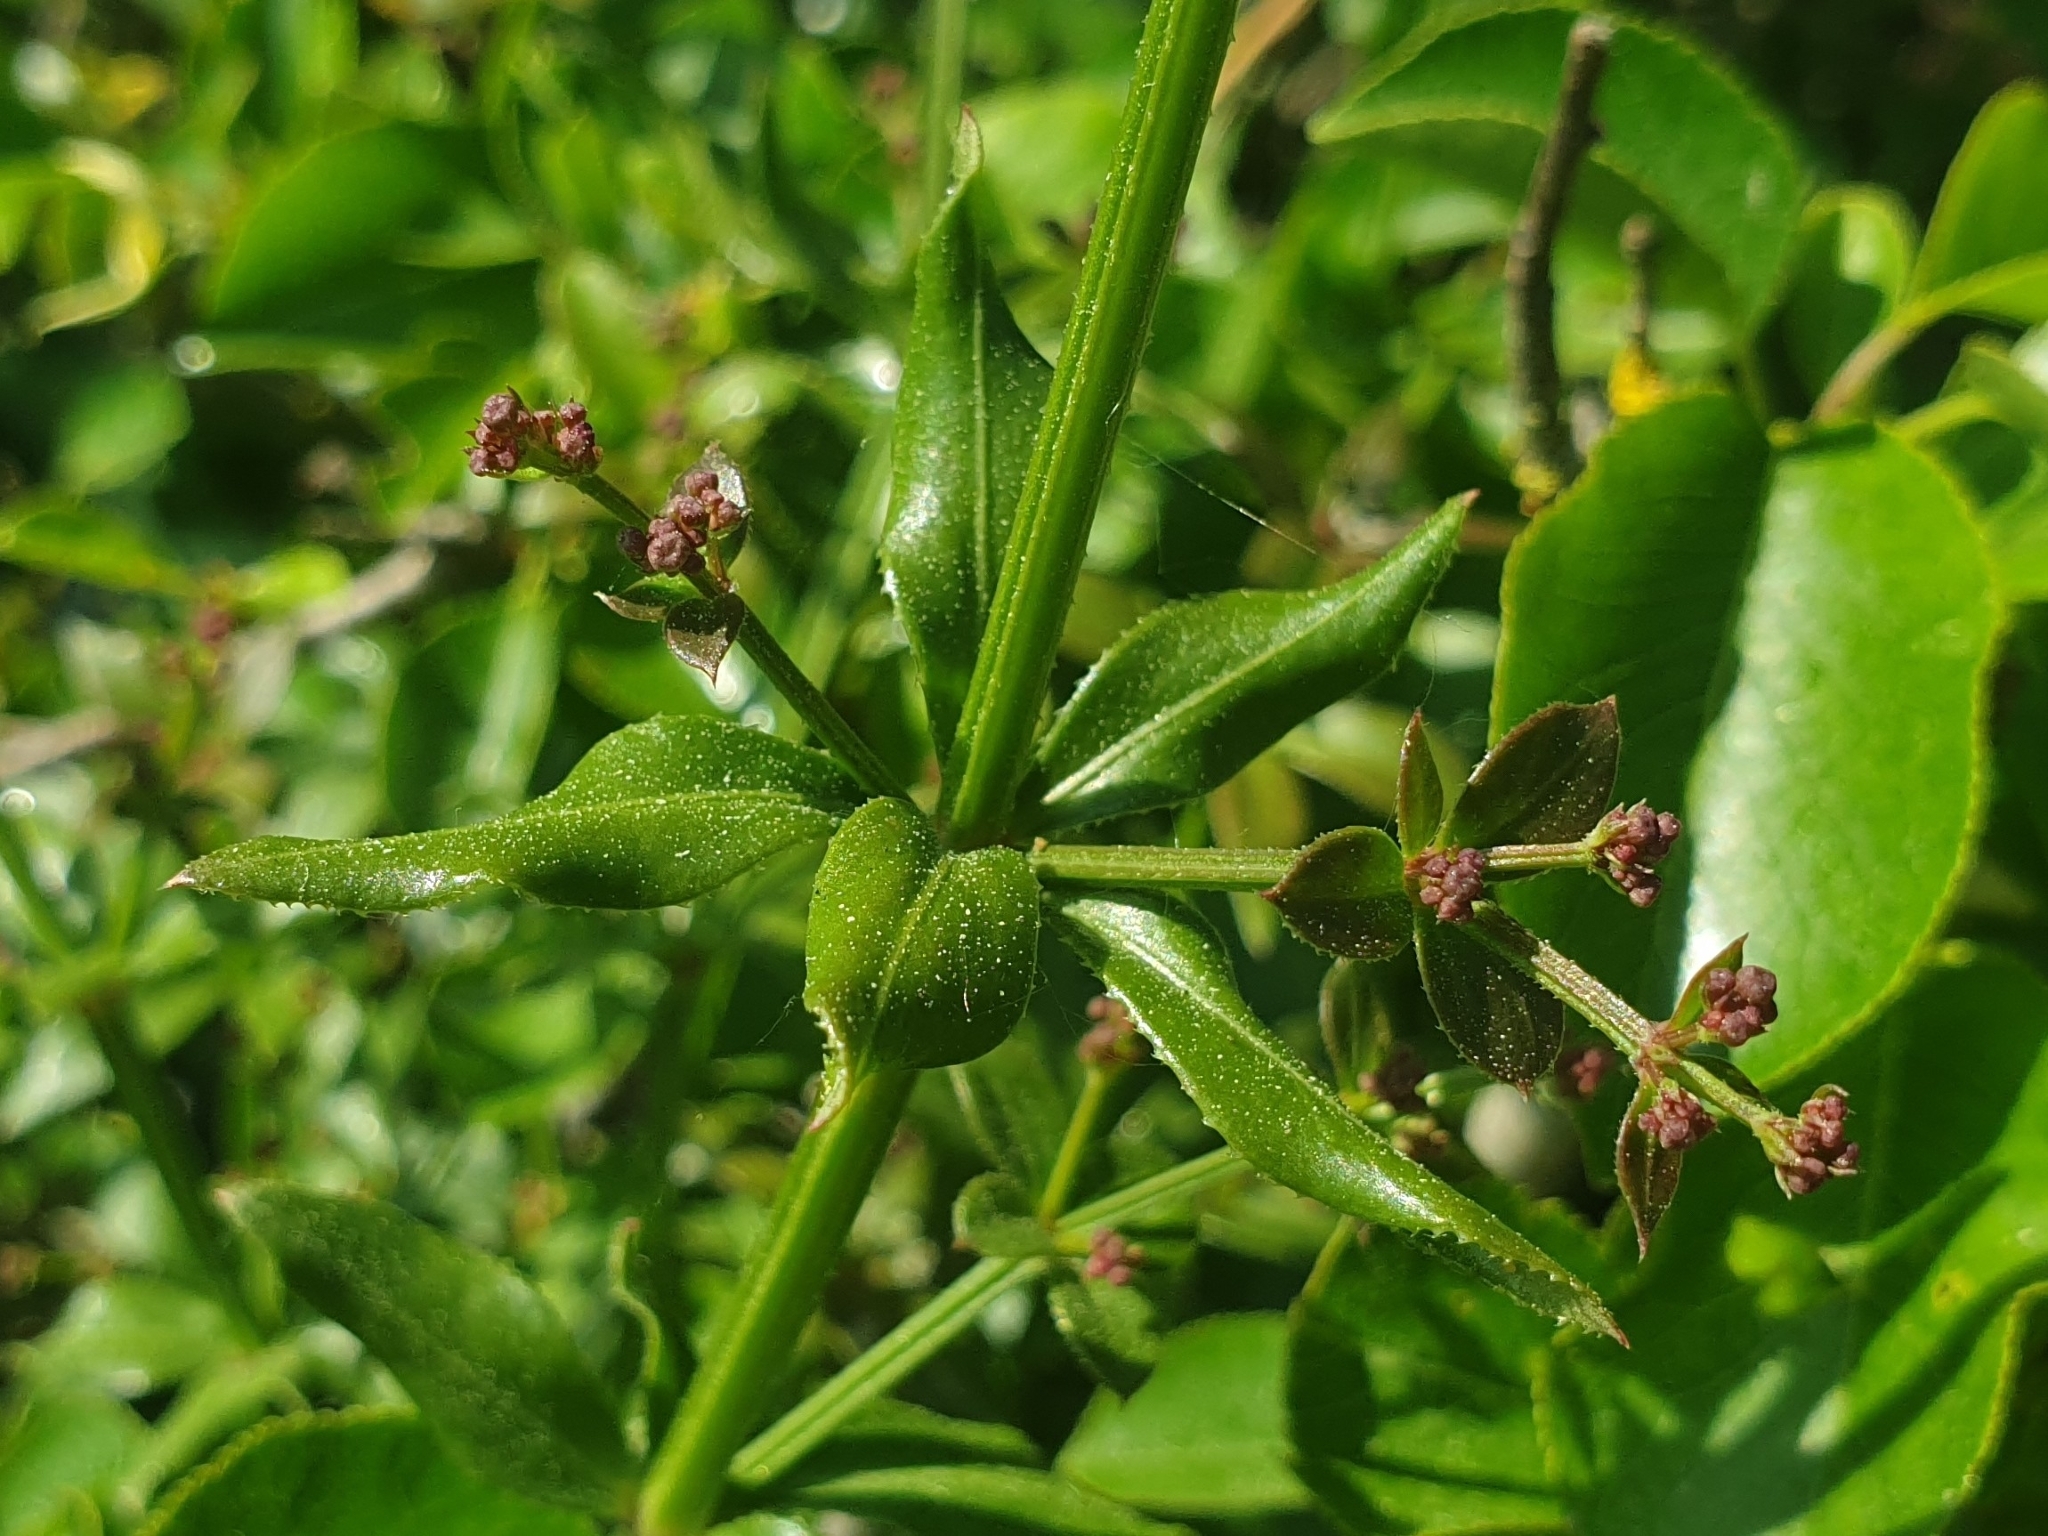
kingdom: Plantae
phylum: Tracheophyta
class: Magnoliopsida
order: Gentianales
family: Rubiaceae
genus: Rubia
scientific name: Rubia peregrina
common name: Wild madder
